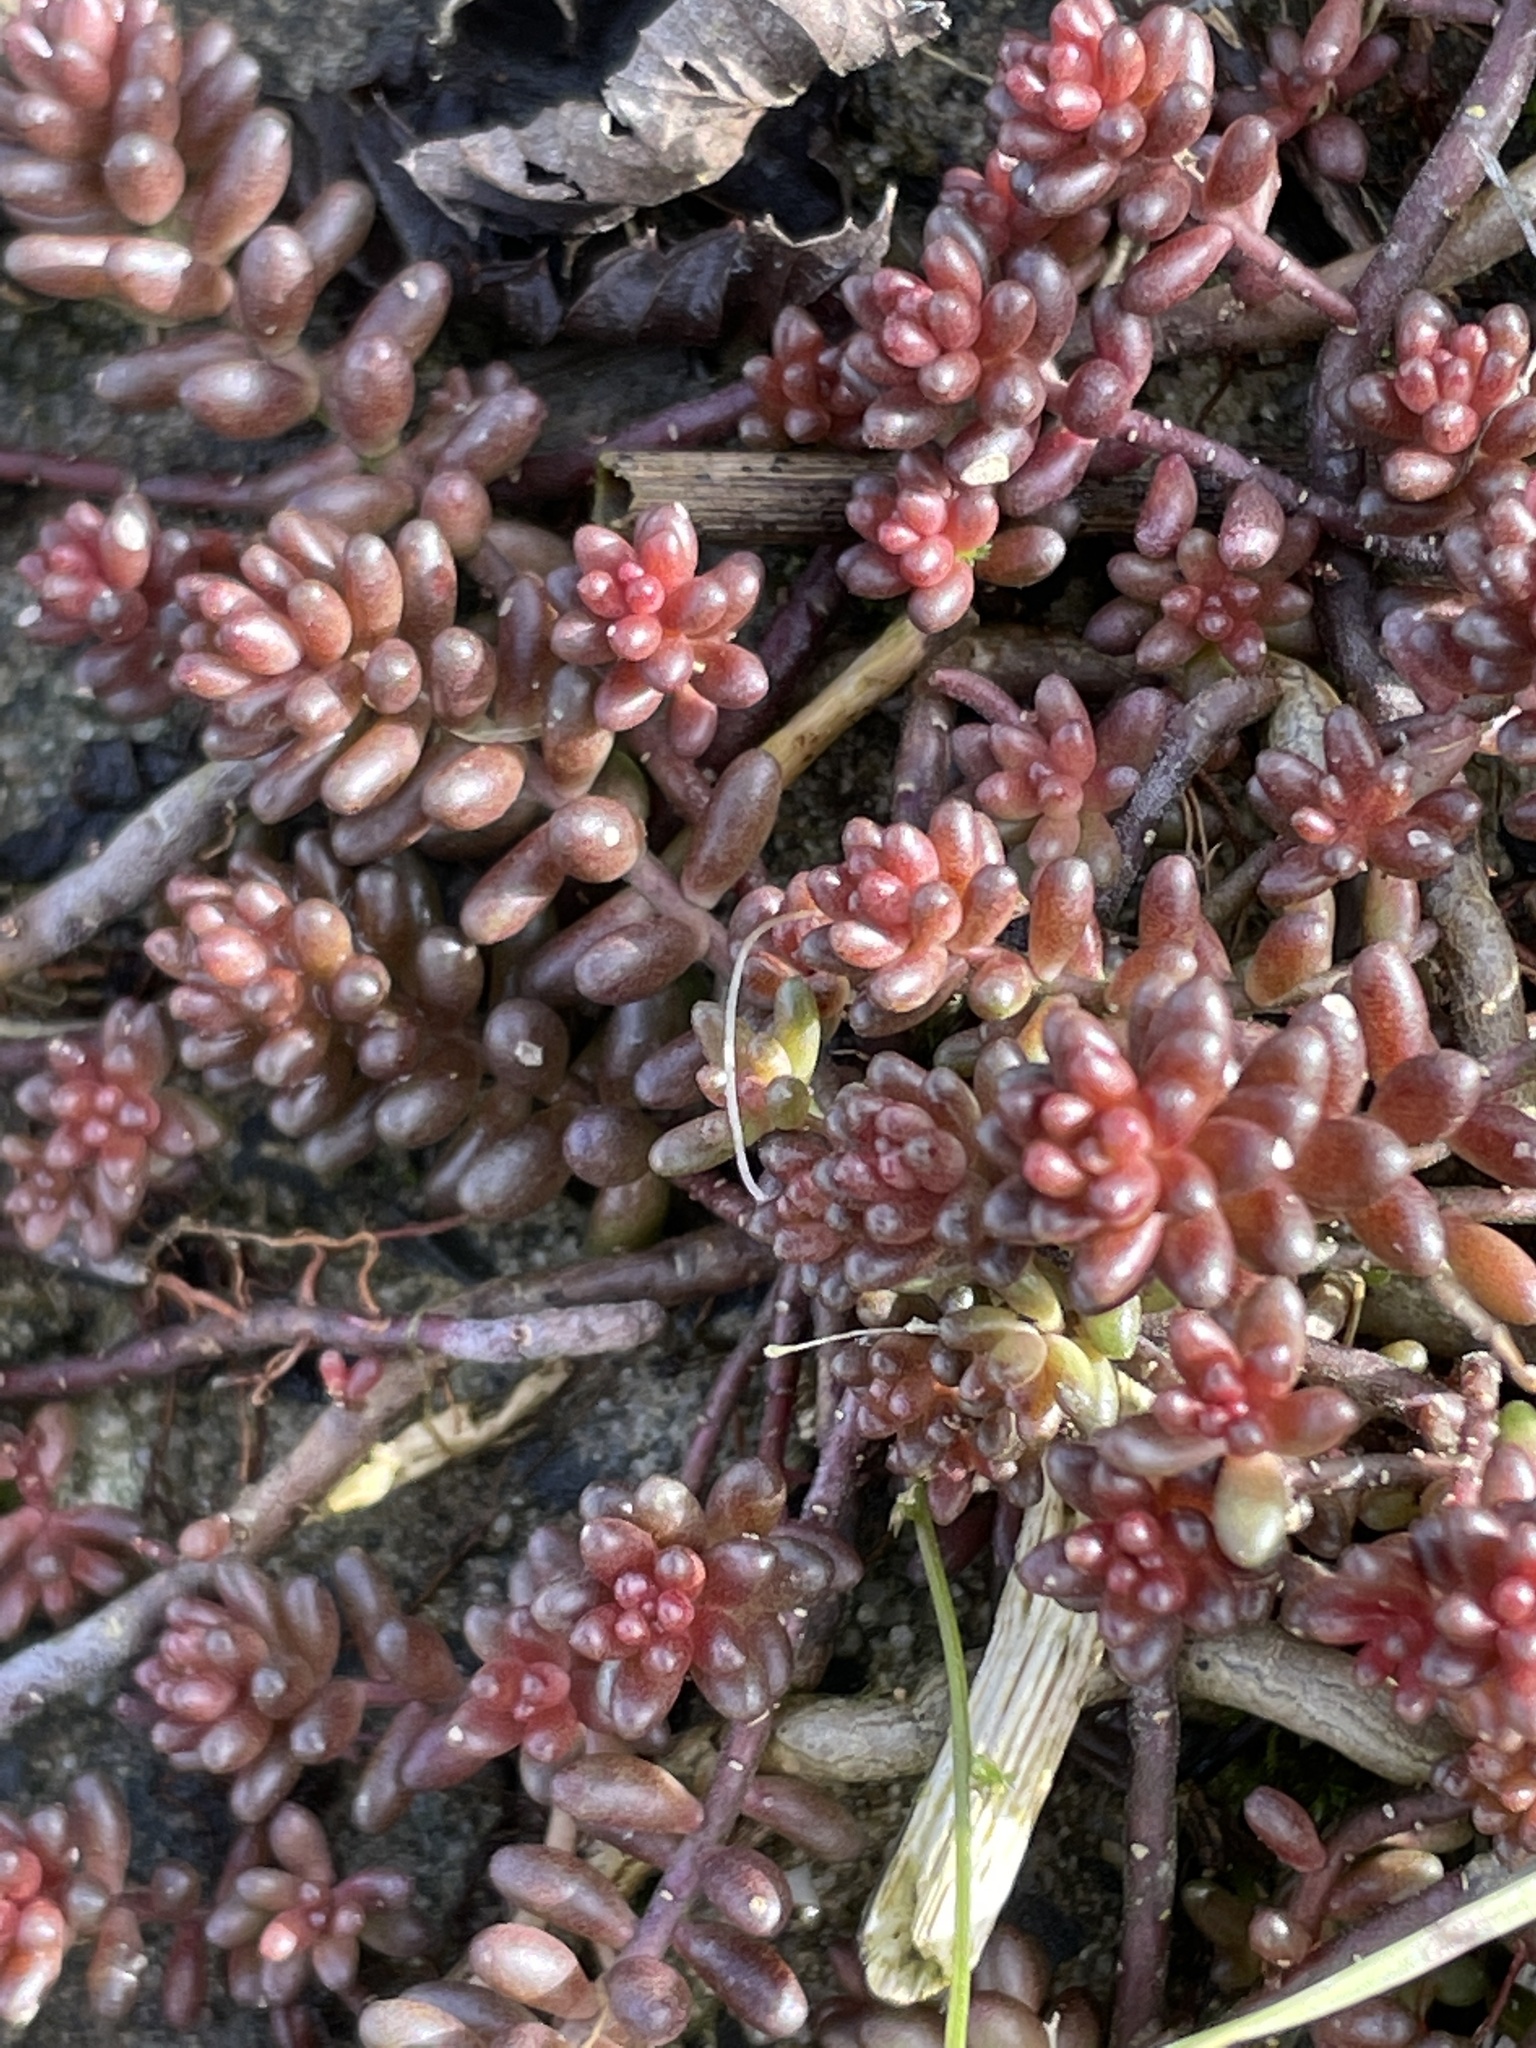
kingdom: Plantae
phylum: Tracheophyta
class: Magnoliopsida
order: Saxifragales
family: Crassulaceae
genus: Sedum
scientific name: Sedum album
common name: White stonecrop
